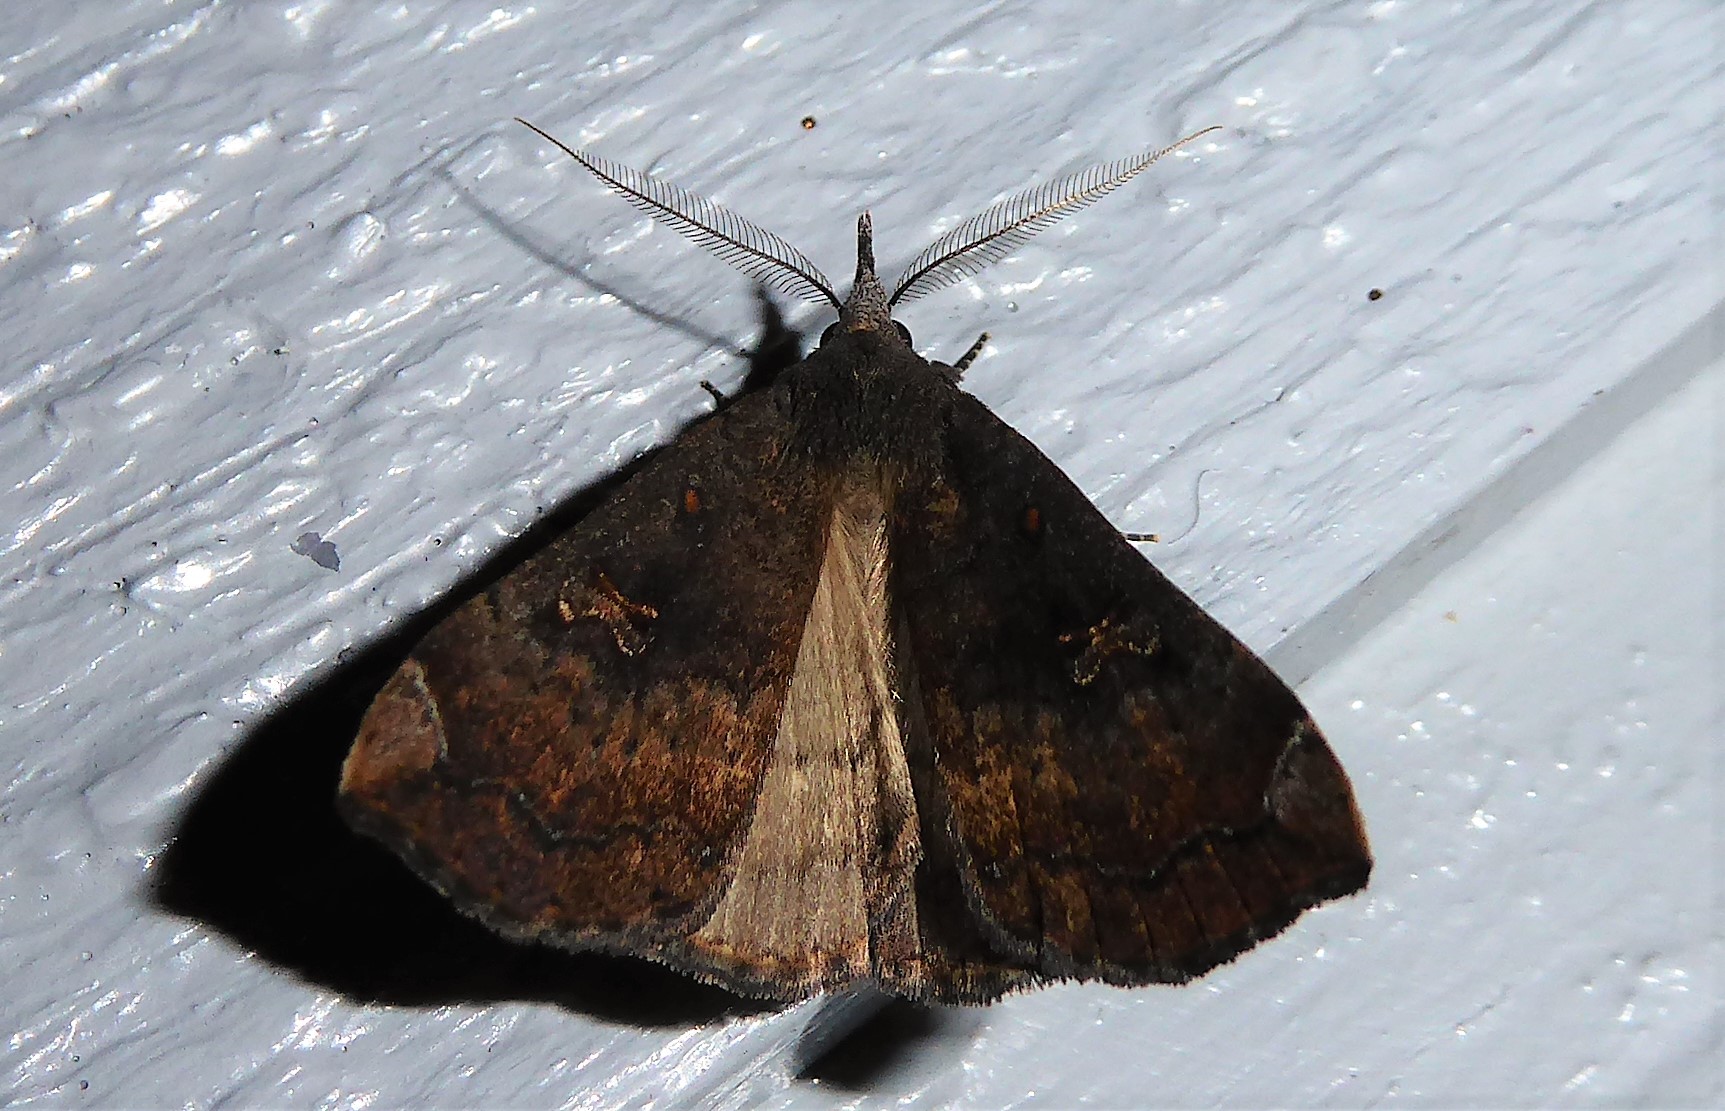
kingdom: Animalia
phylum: Arthropoda
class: Insecta
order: Lepidoptera
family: Erebidae
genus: Rhapsa
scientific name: Rhapsa scotosialis
